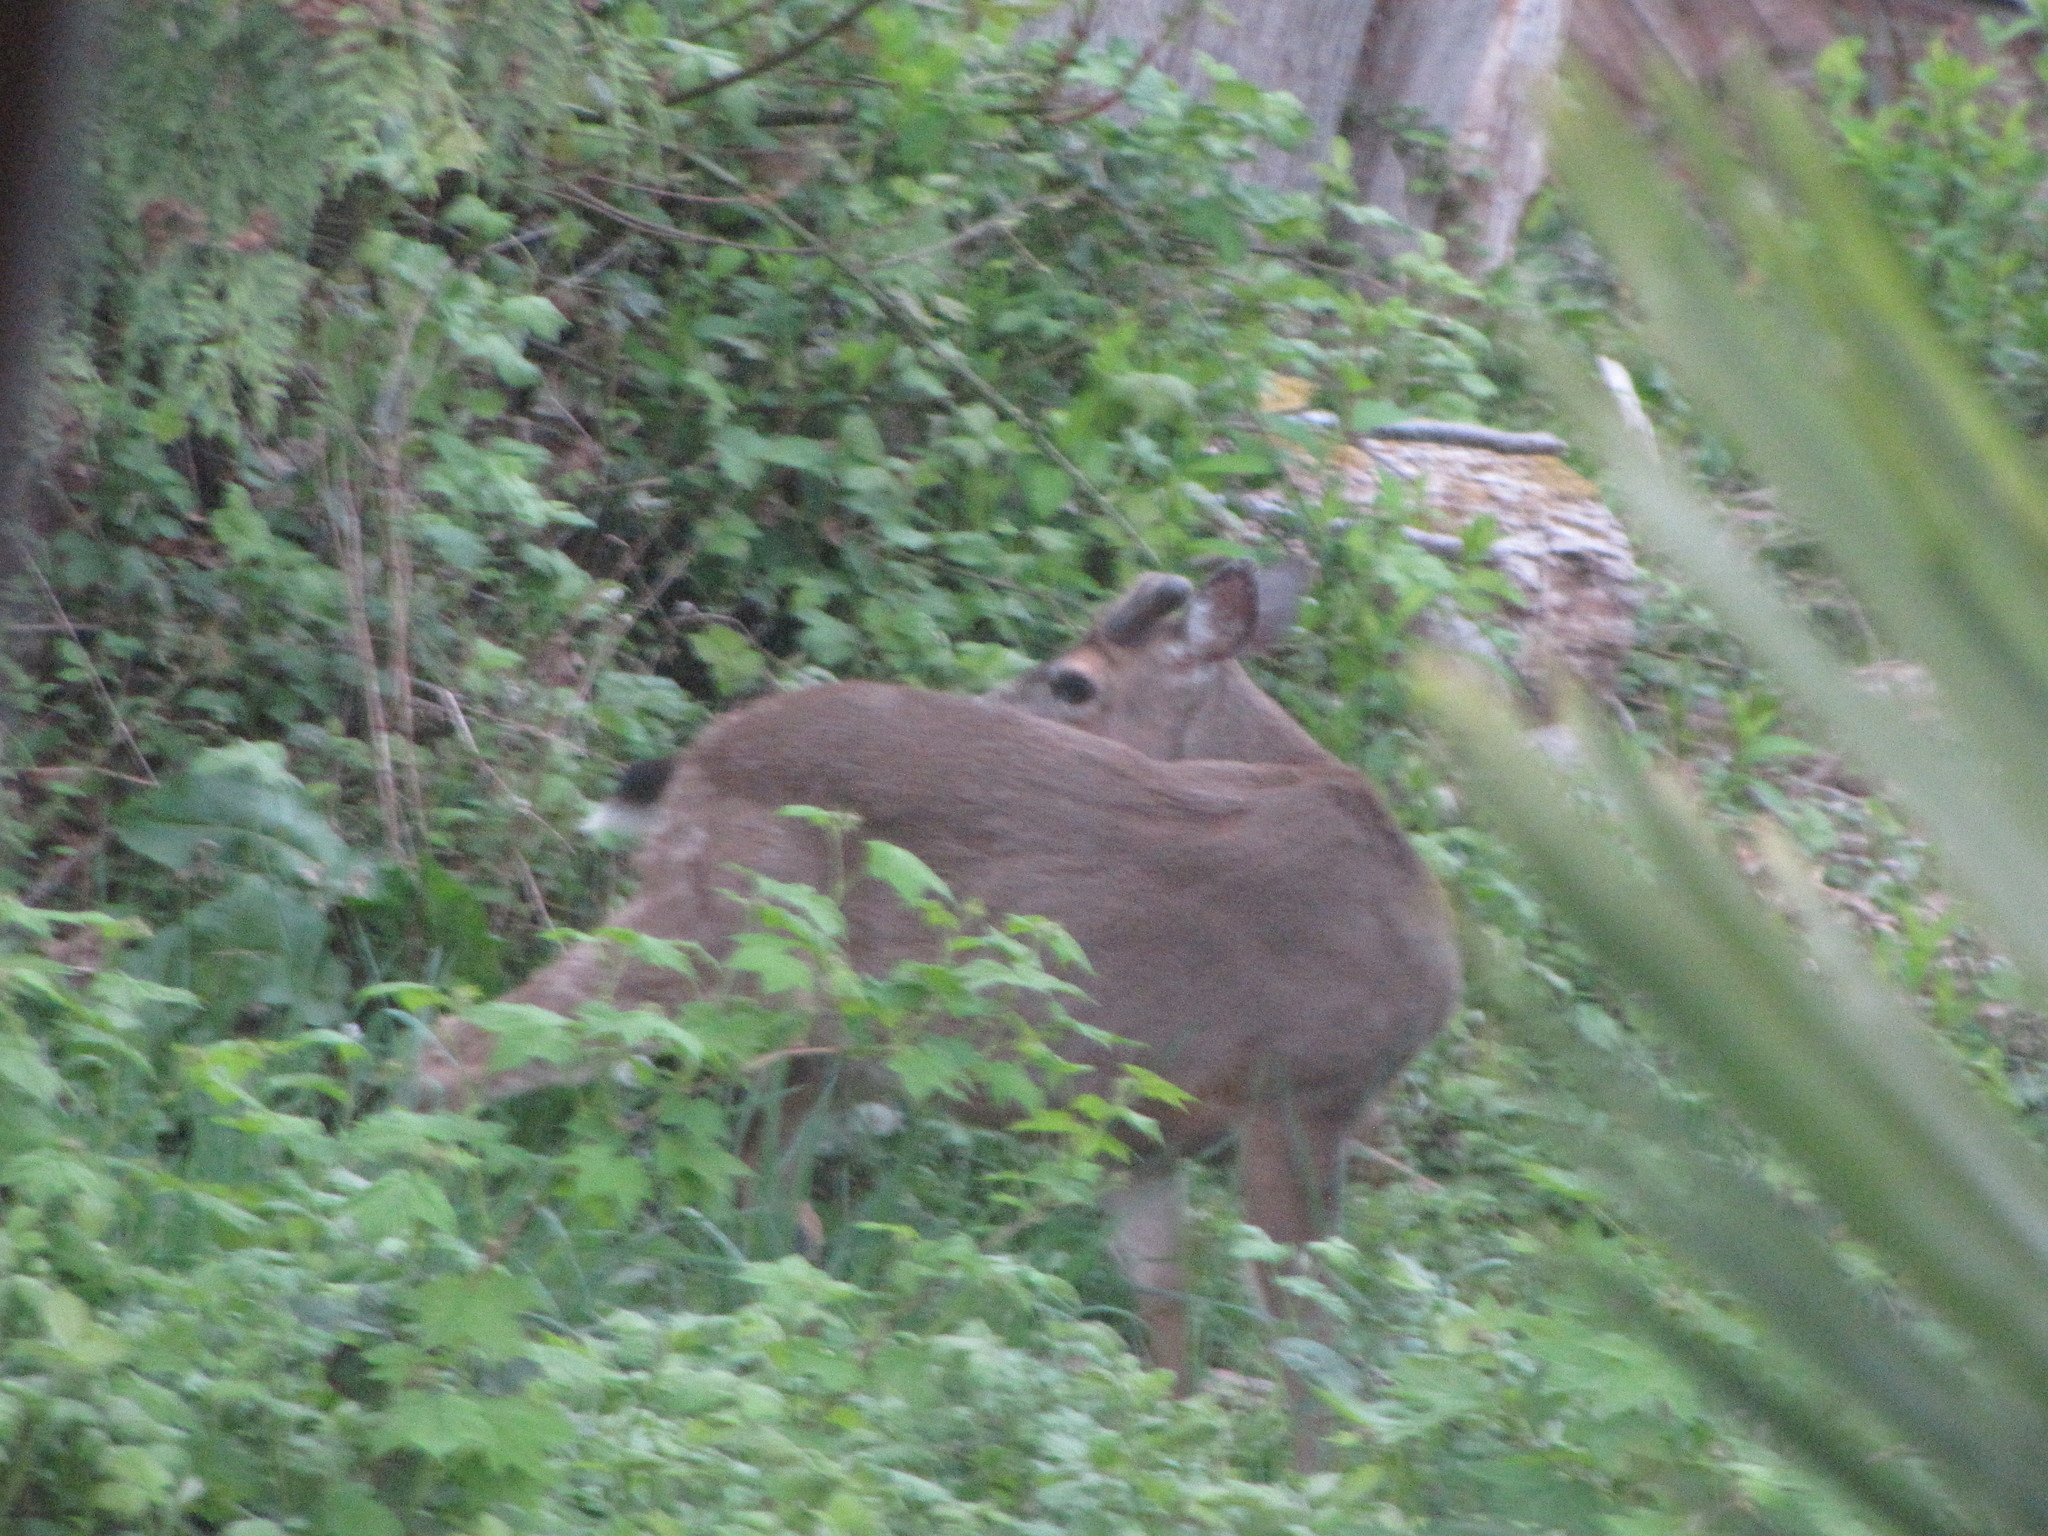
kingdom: Animalia
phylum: Chordata
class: Mammalia
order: Artiodactyla
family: Cervidae
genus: Odocoileus
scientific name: Odocoileus hemionus
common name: Mule deer
